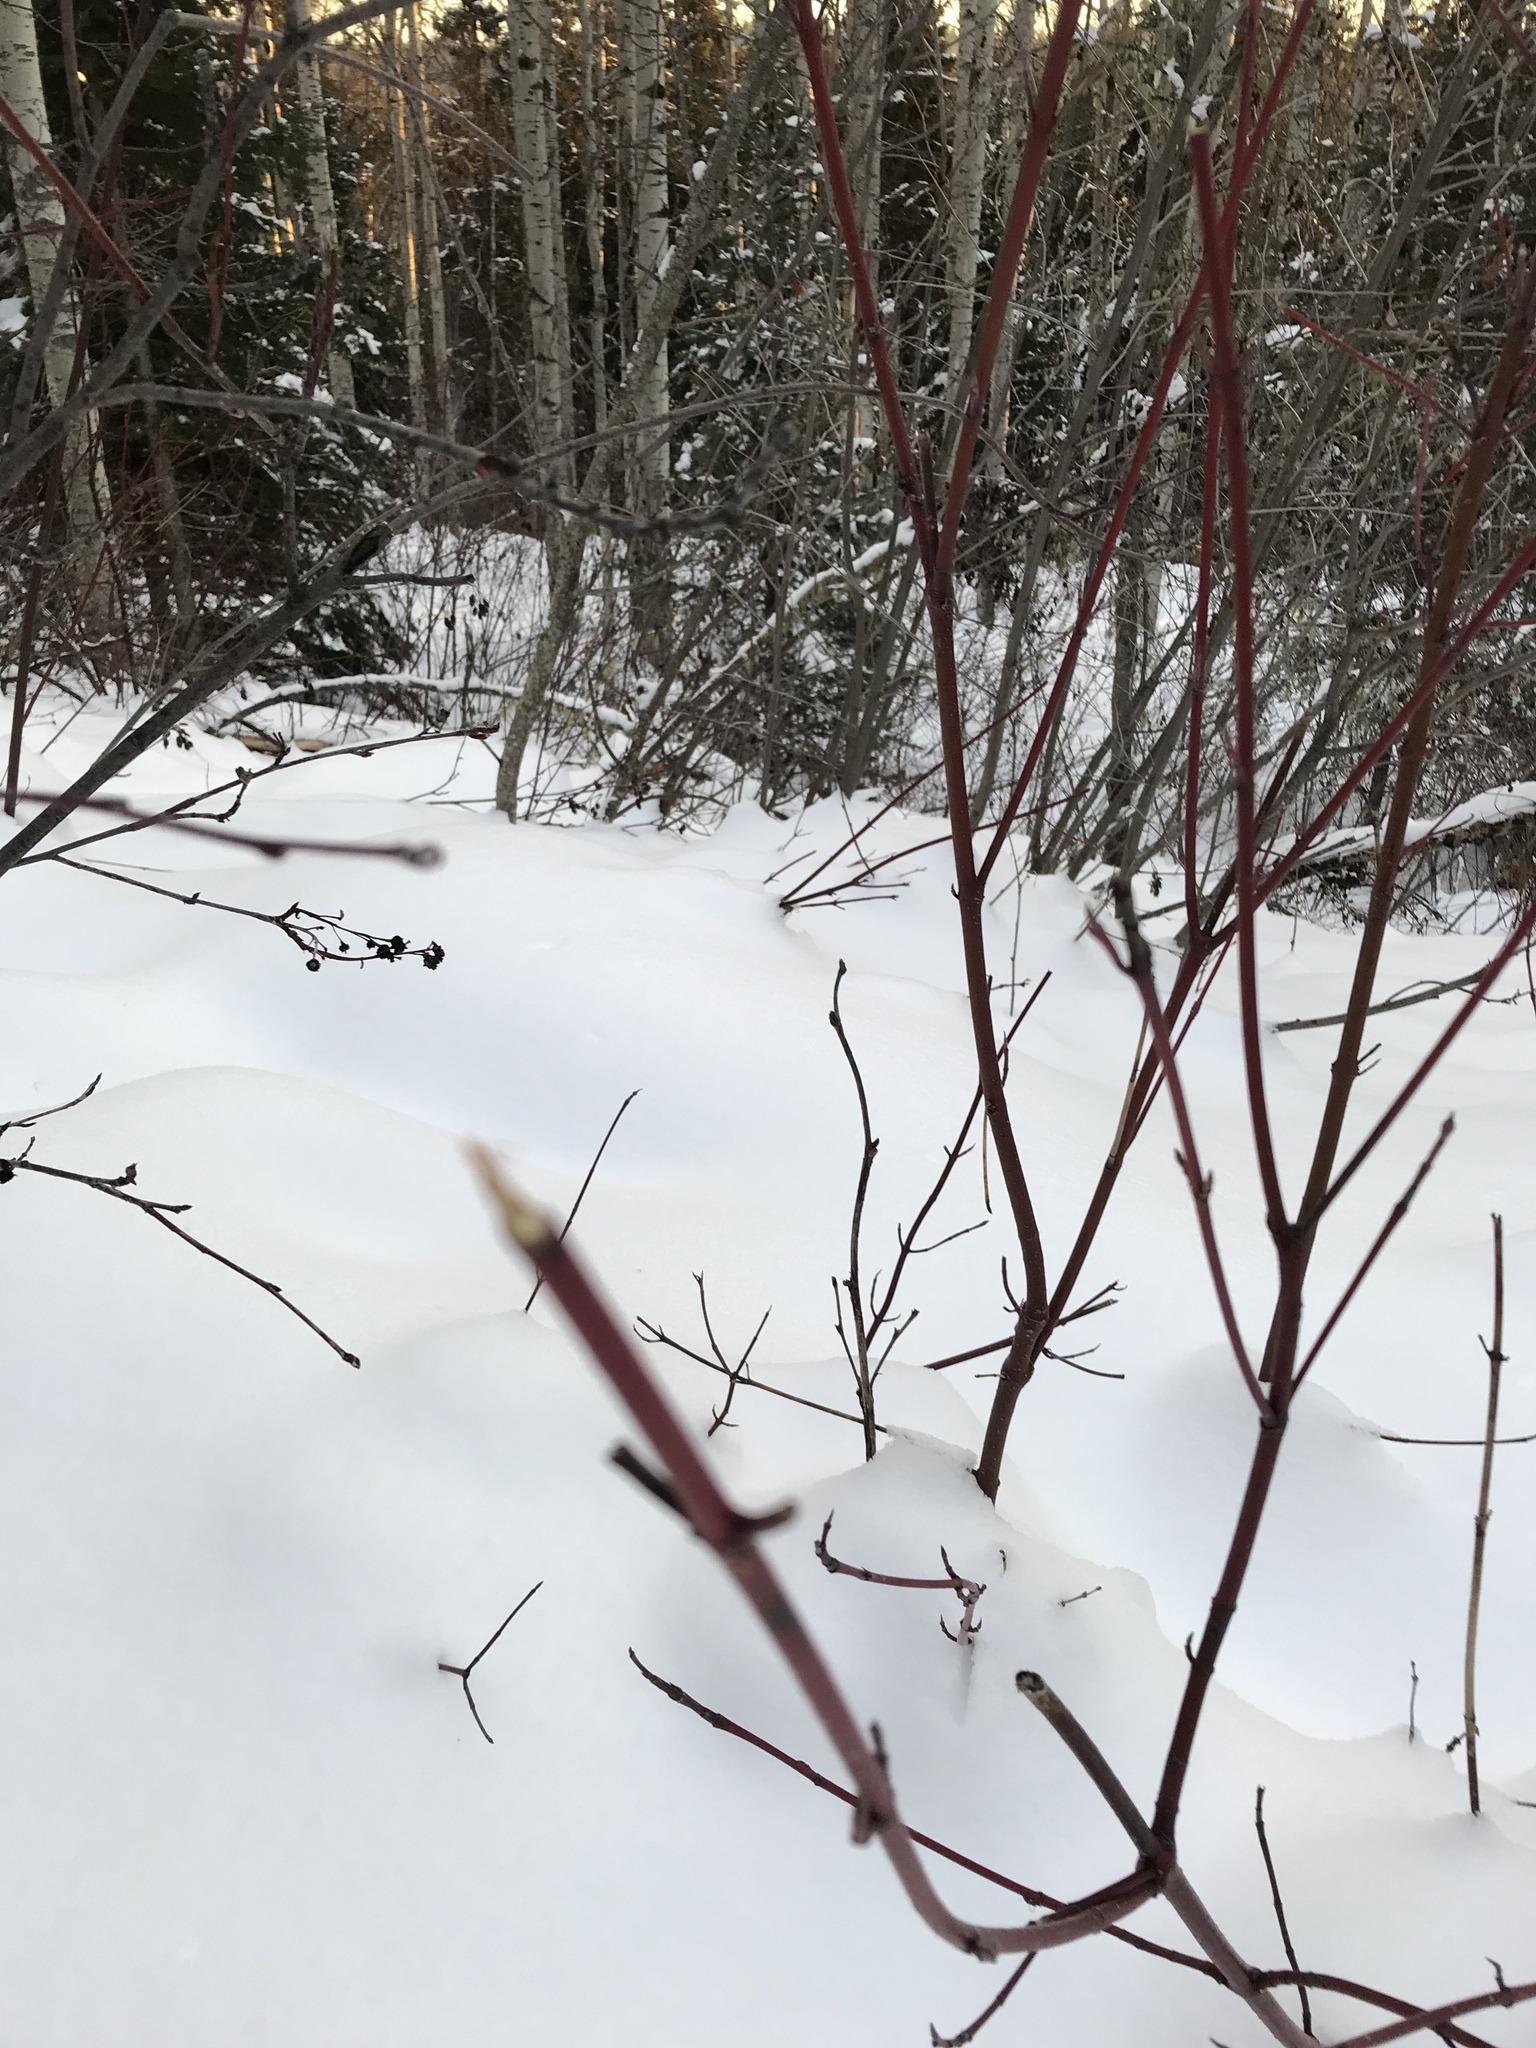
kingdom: Plantae
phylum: Tracheophyta
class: Magnoliopsida
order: Cornales
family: Cornaceae
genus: Cornus
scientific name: Cornus sericea
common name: Red-osier dogwood
